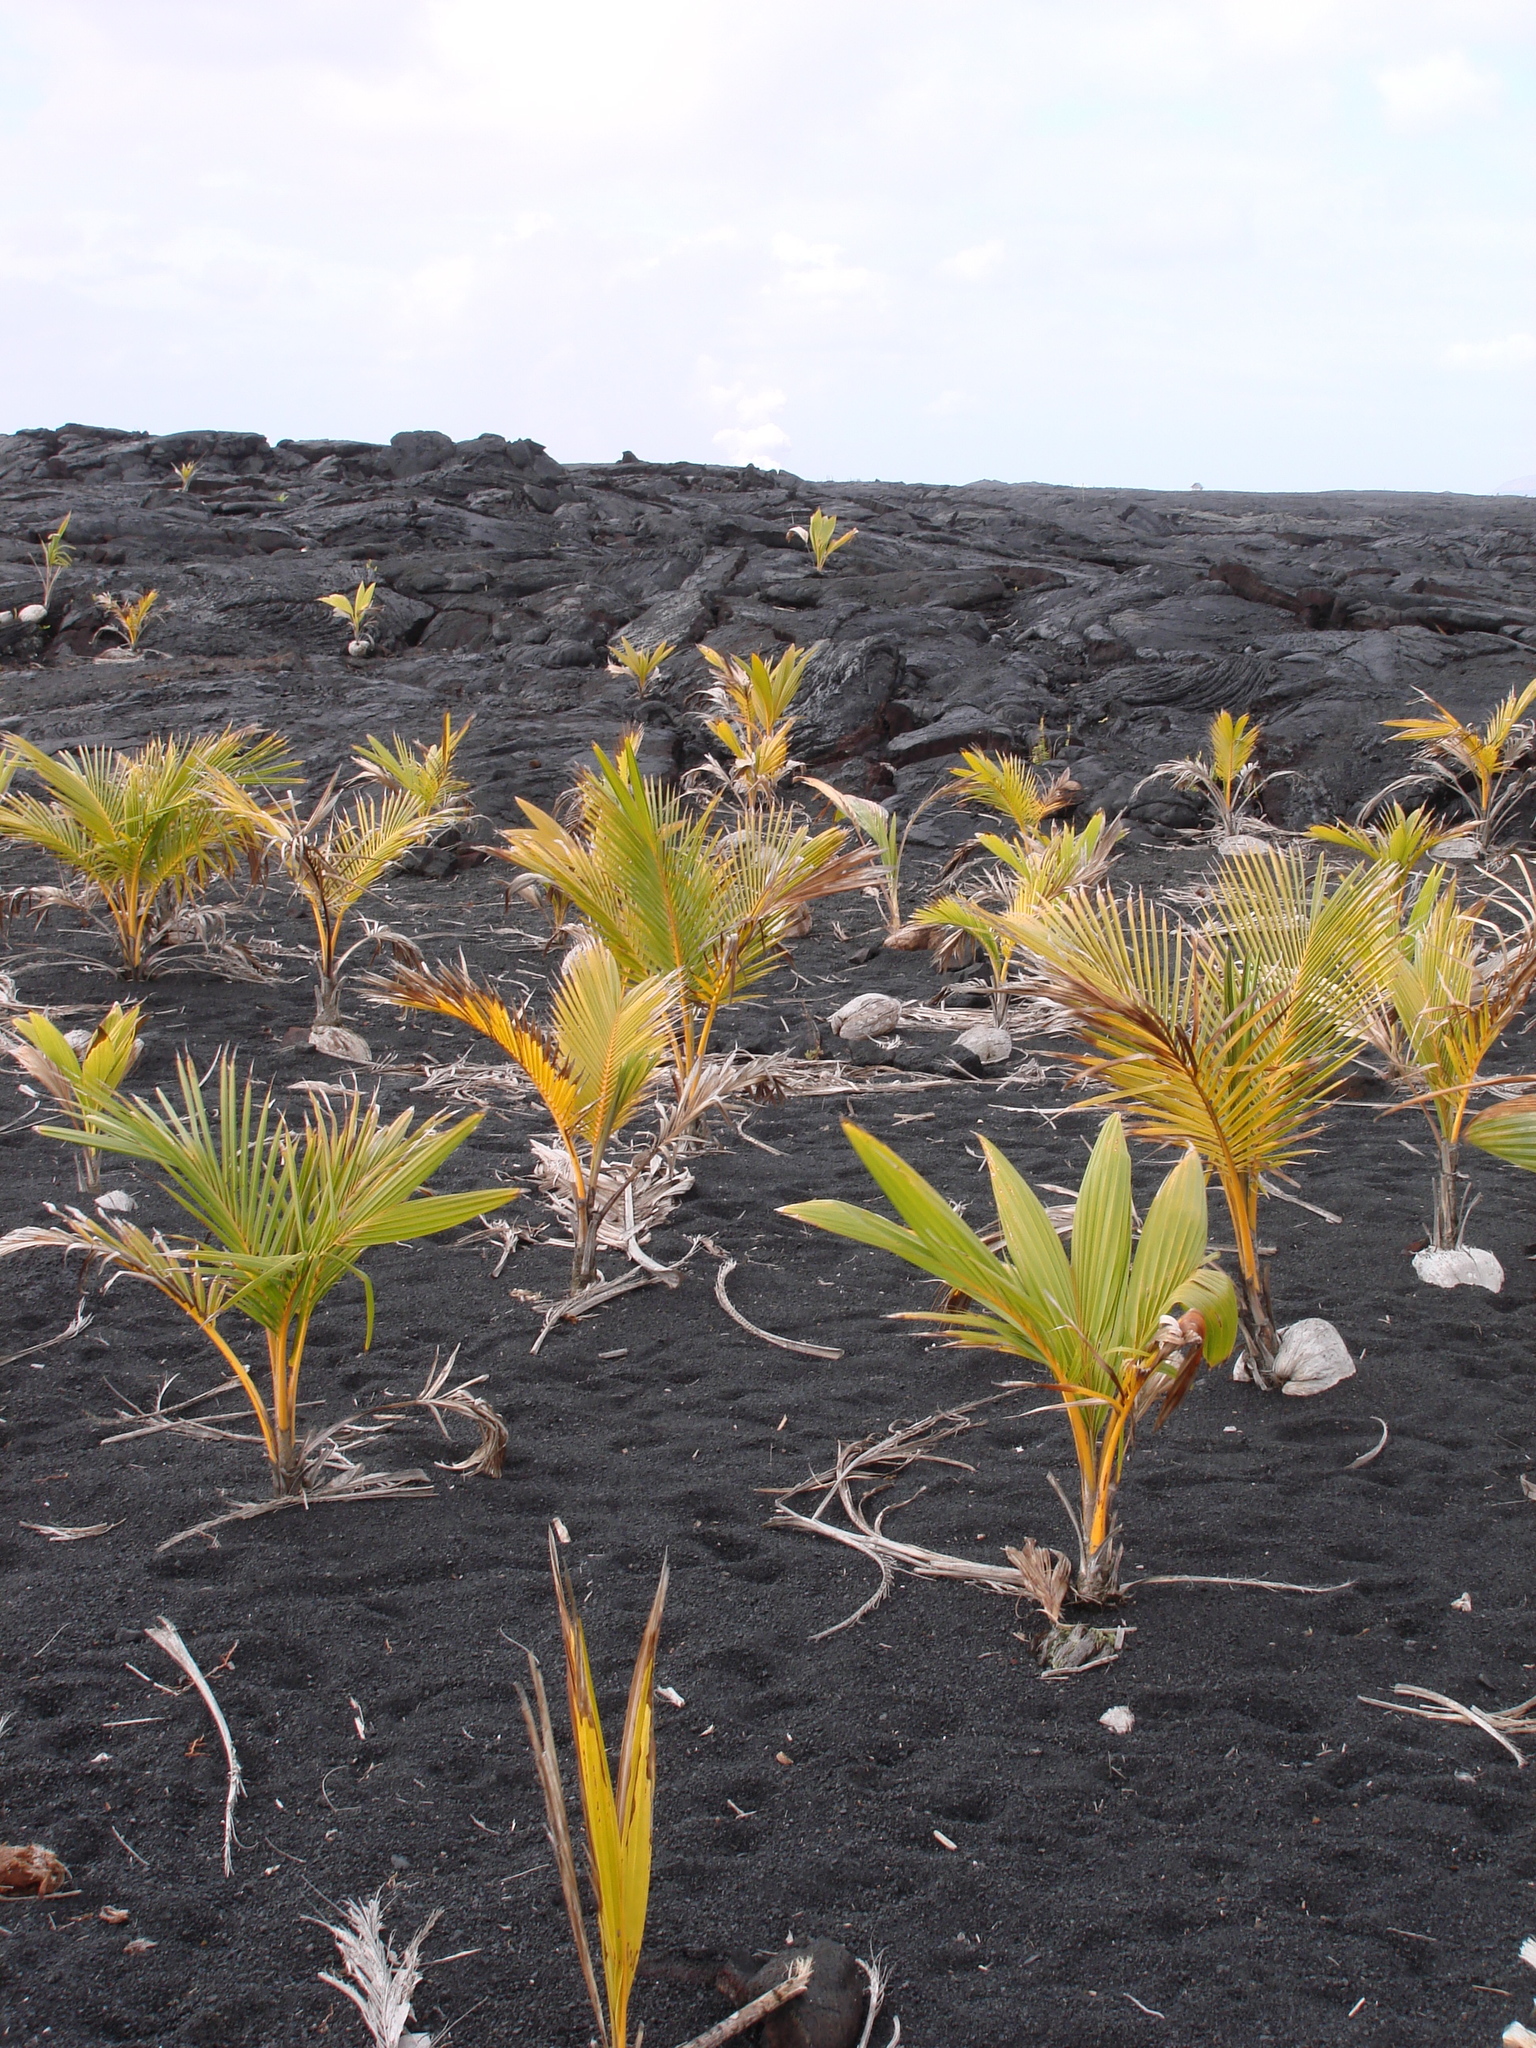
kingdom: Plantae
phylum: Tracheophyta
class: Liliopsida
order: Arecales
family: Arecaceae
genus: Cocos
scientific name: Cocos nucifera
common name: Coconut palm
